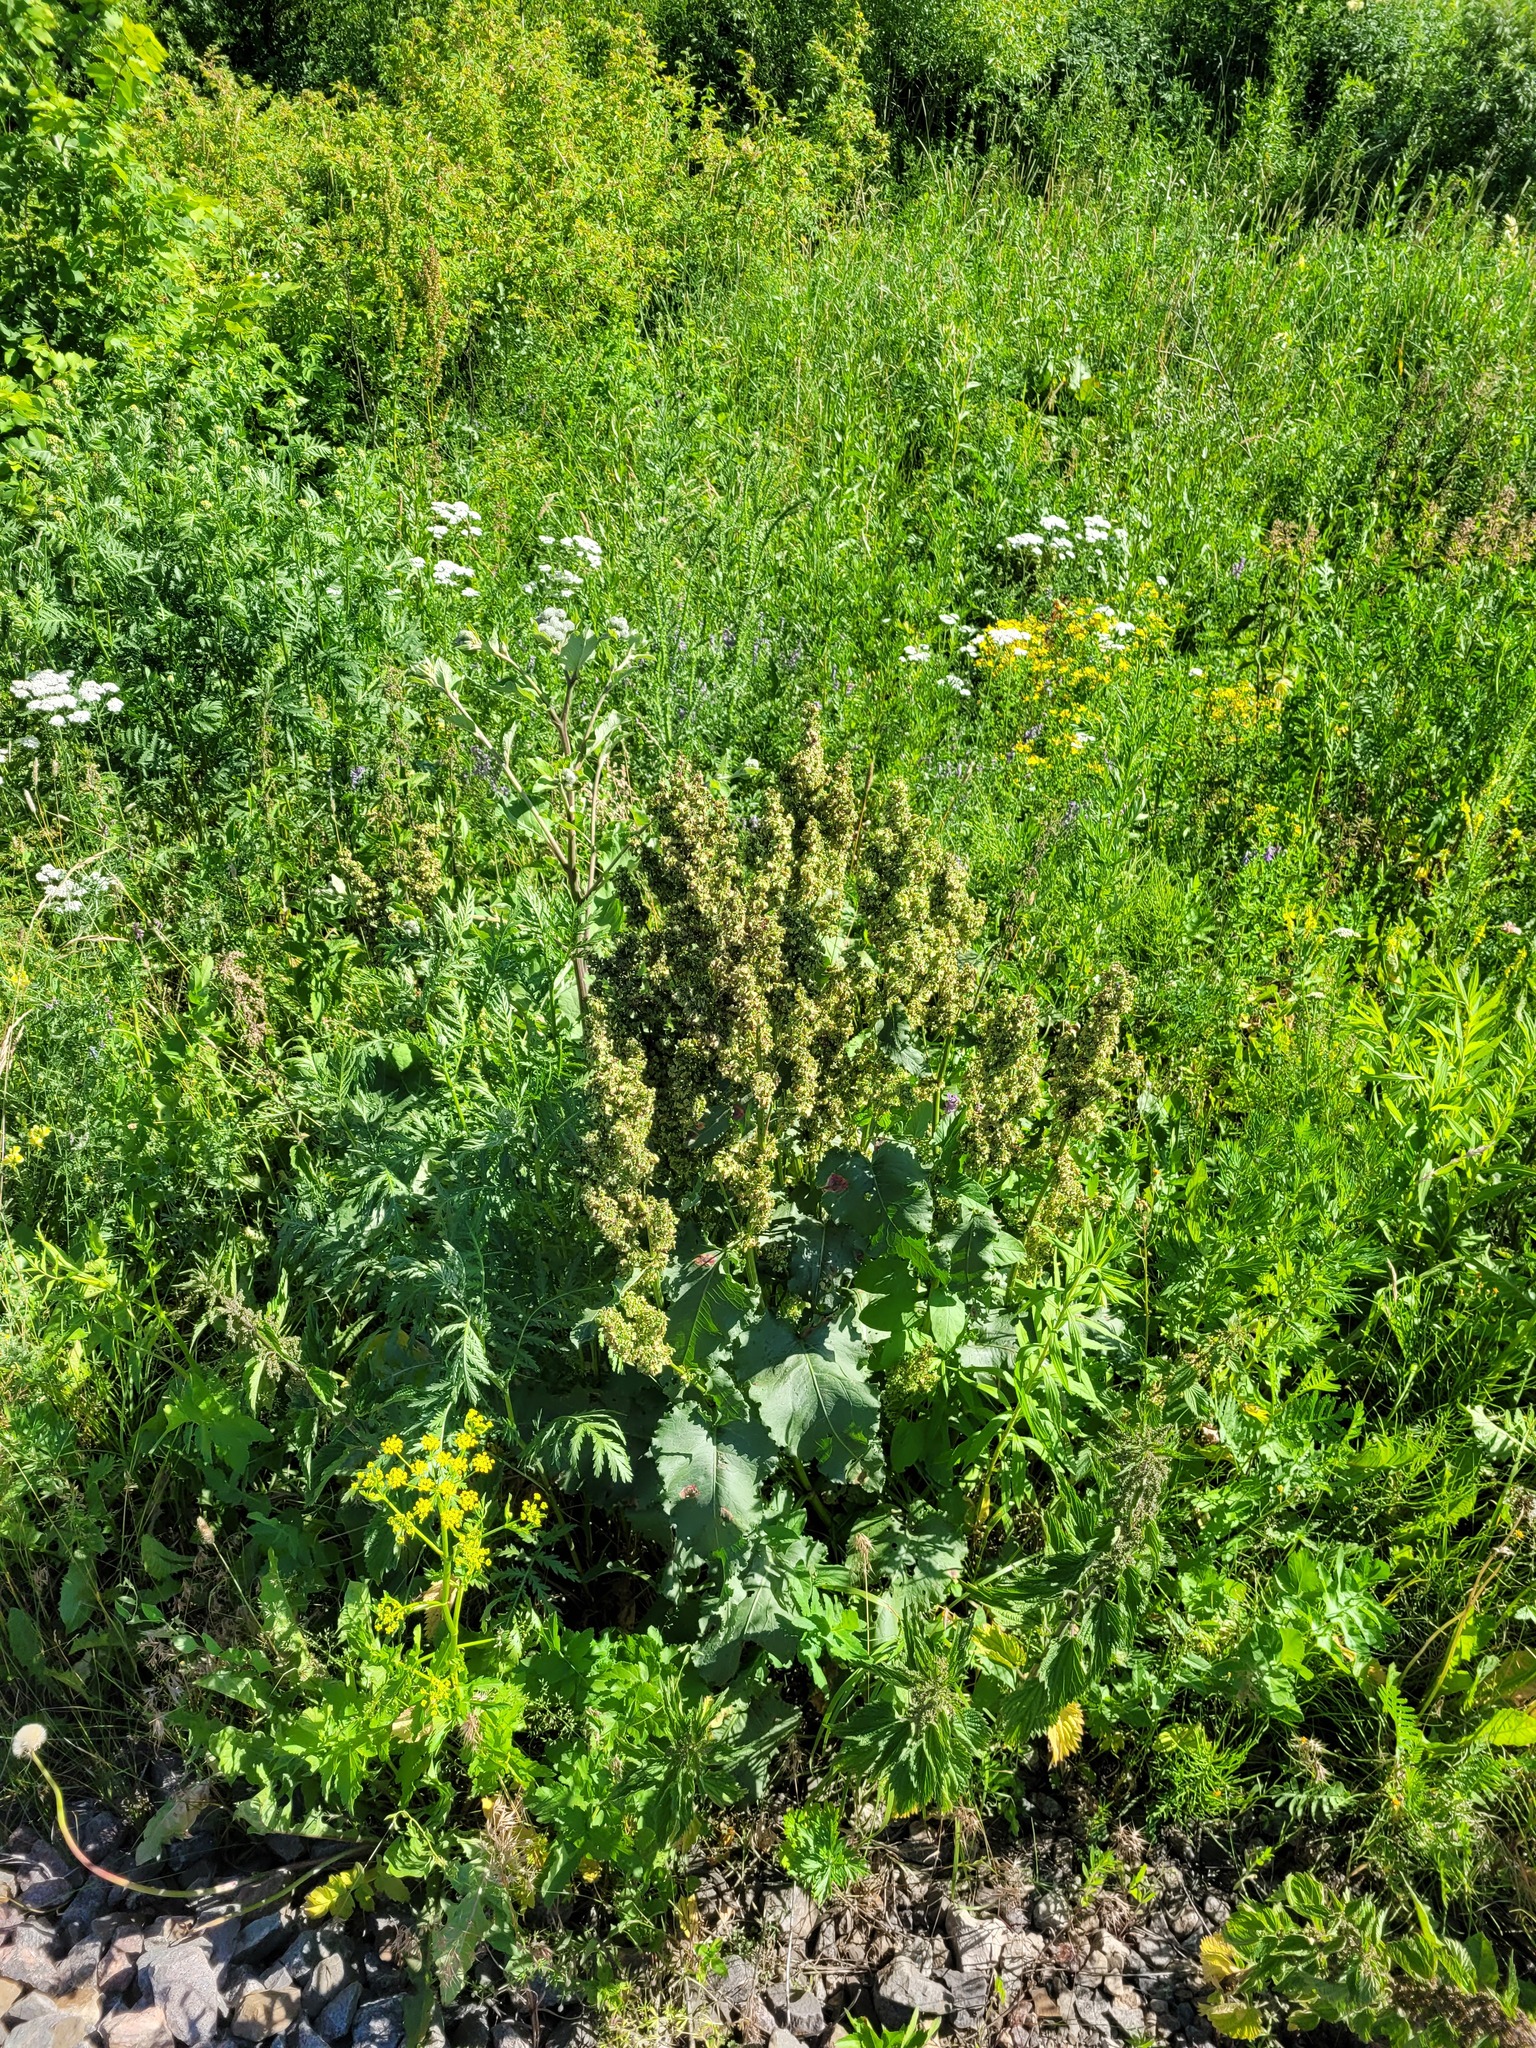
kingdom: Plantae
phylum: Tracheophyta
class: Magnoliopsida
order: Caryophyllales
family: Polygonaceae
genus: Rumex
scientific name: Rumex confertus
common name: Russian dock
